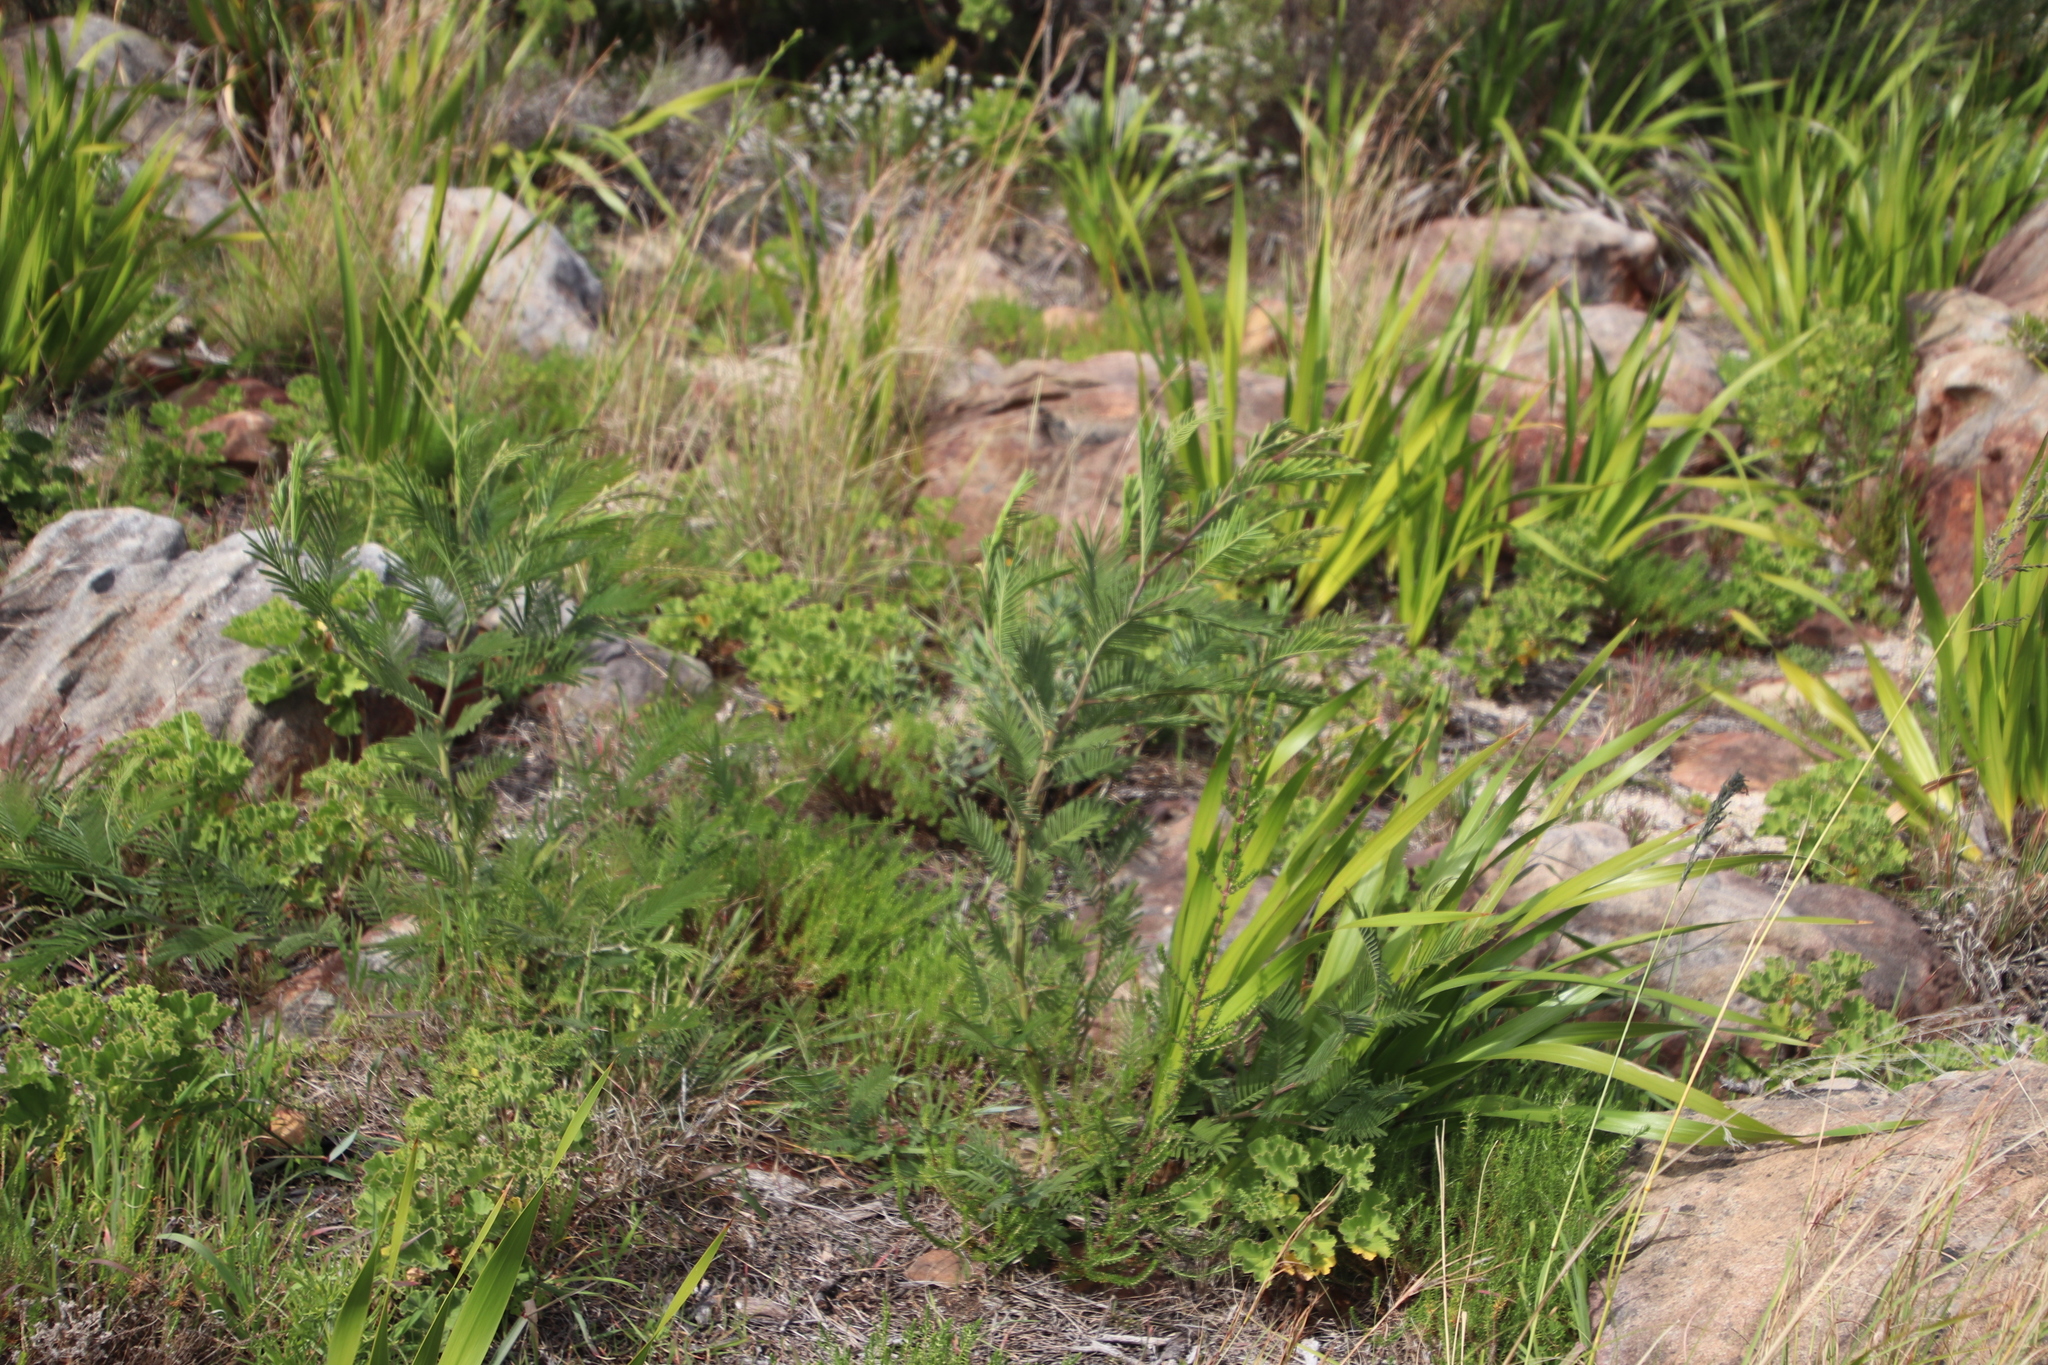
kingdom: Plantae
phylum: Tracheophyta
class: Magnoliopsida
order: Fabales
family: Fabaceae
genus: Acacia
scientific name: Acacia mearnsii
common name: Black wattle
